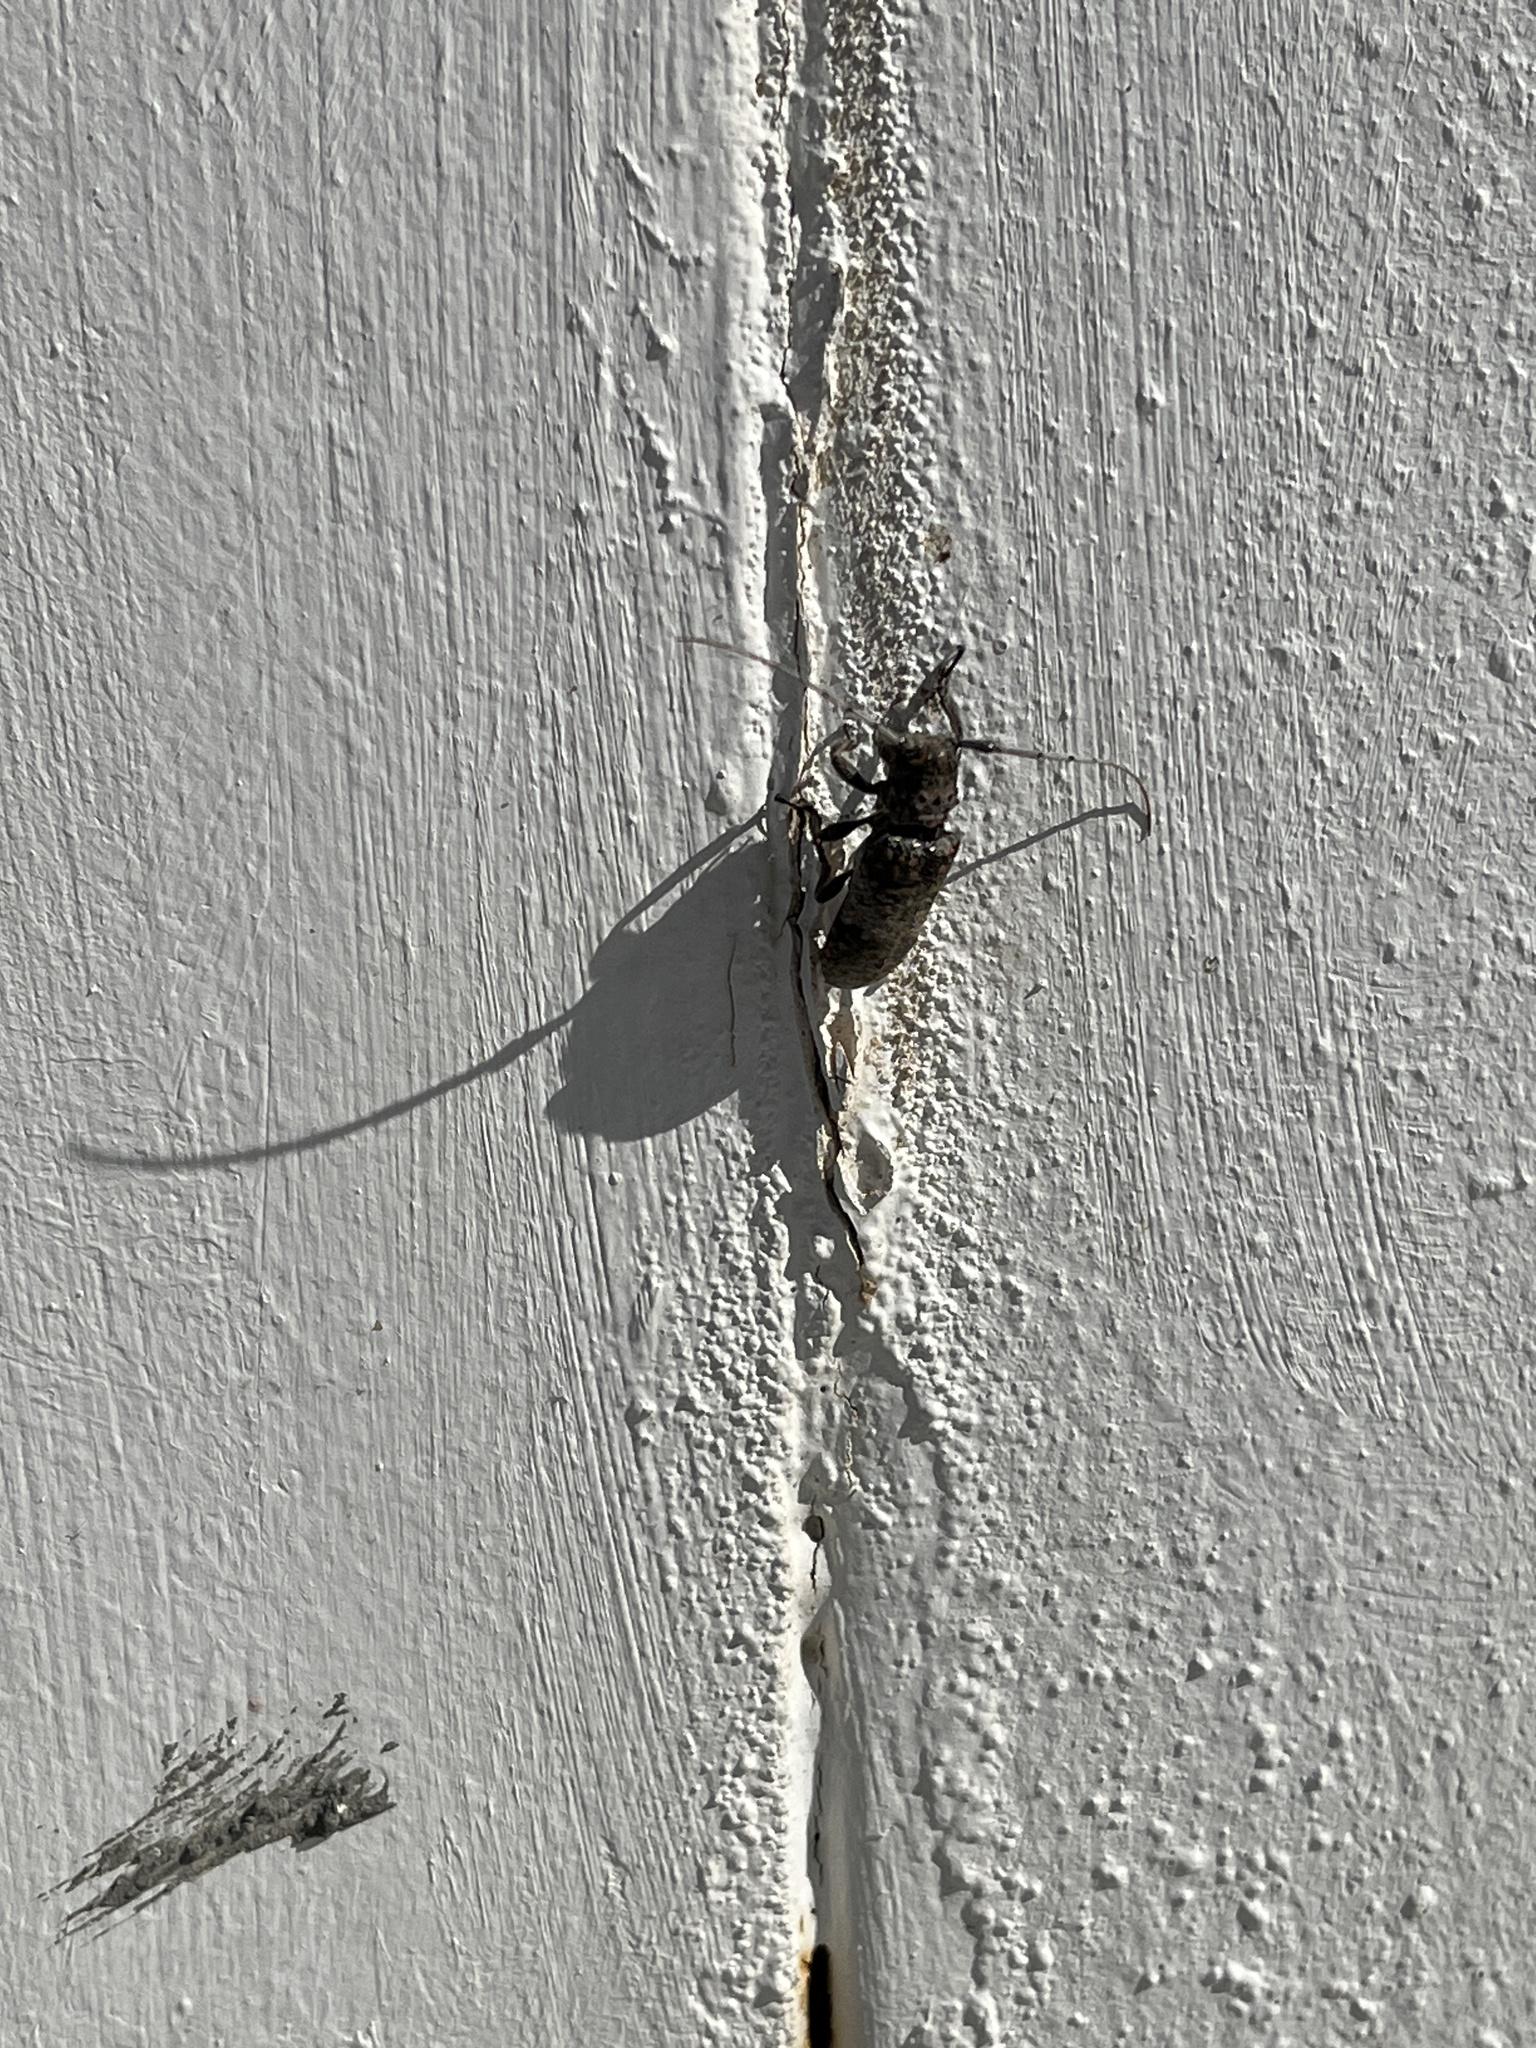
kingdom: Animalia
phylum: Arthropoda
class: Insecta
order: Coleoptera
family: Cerambycidae
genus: Oncideres
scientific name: Oncideres rhodosticta
